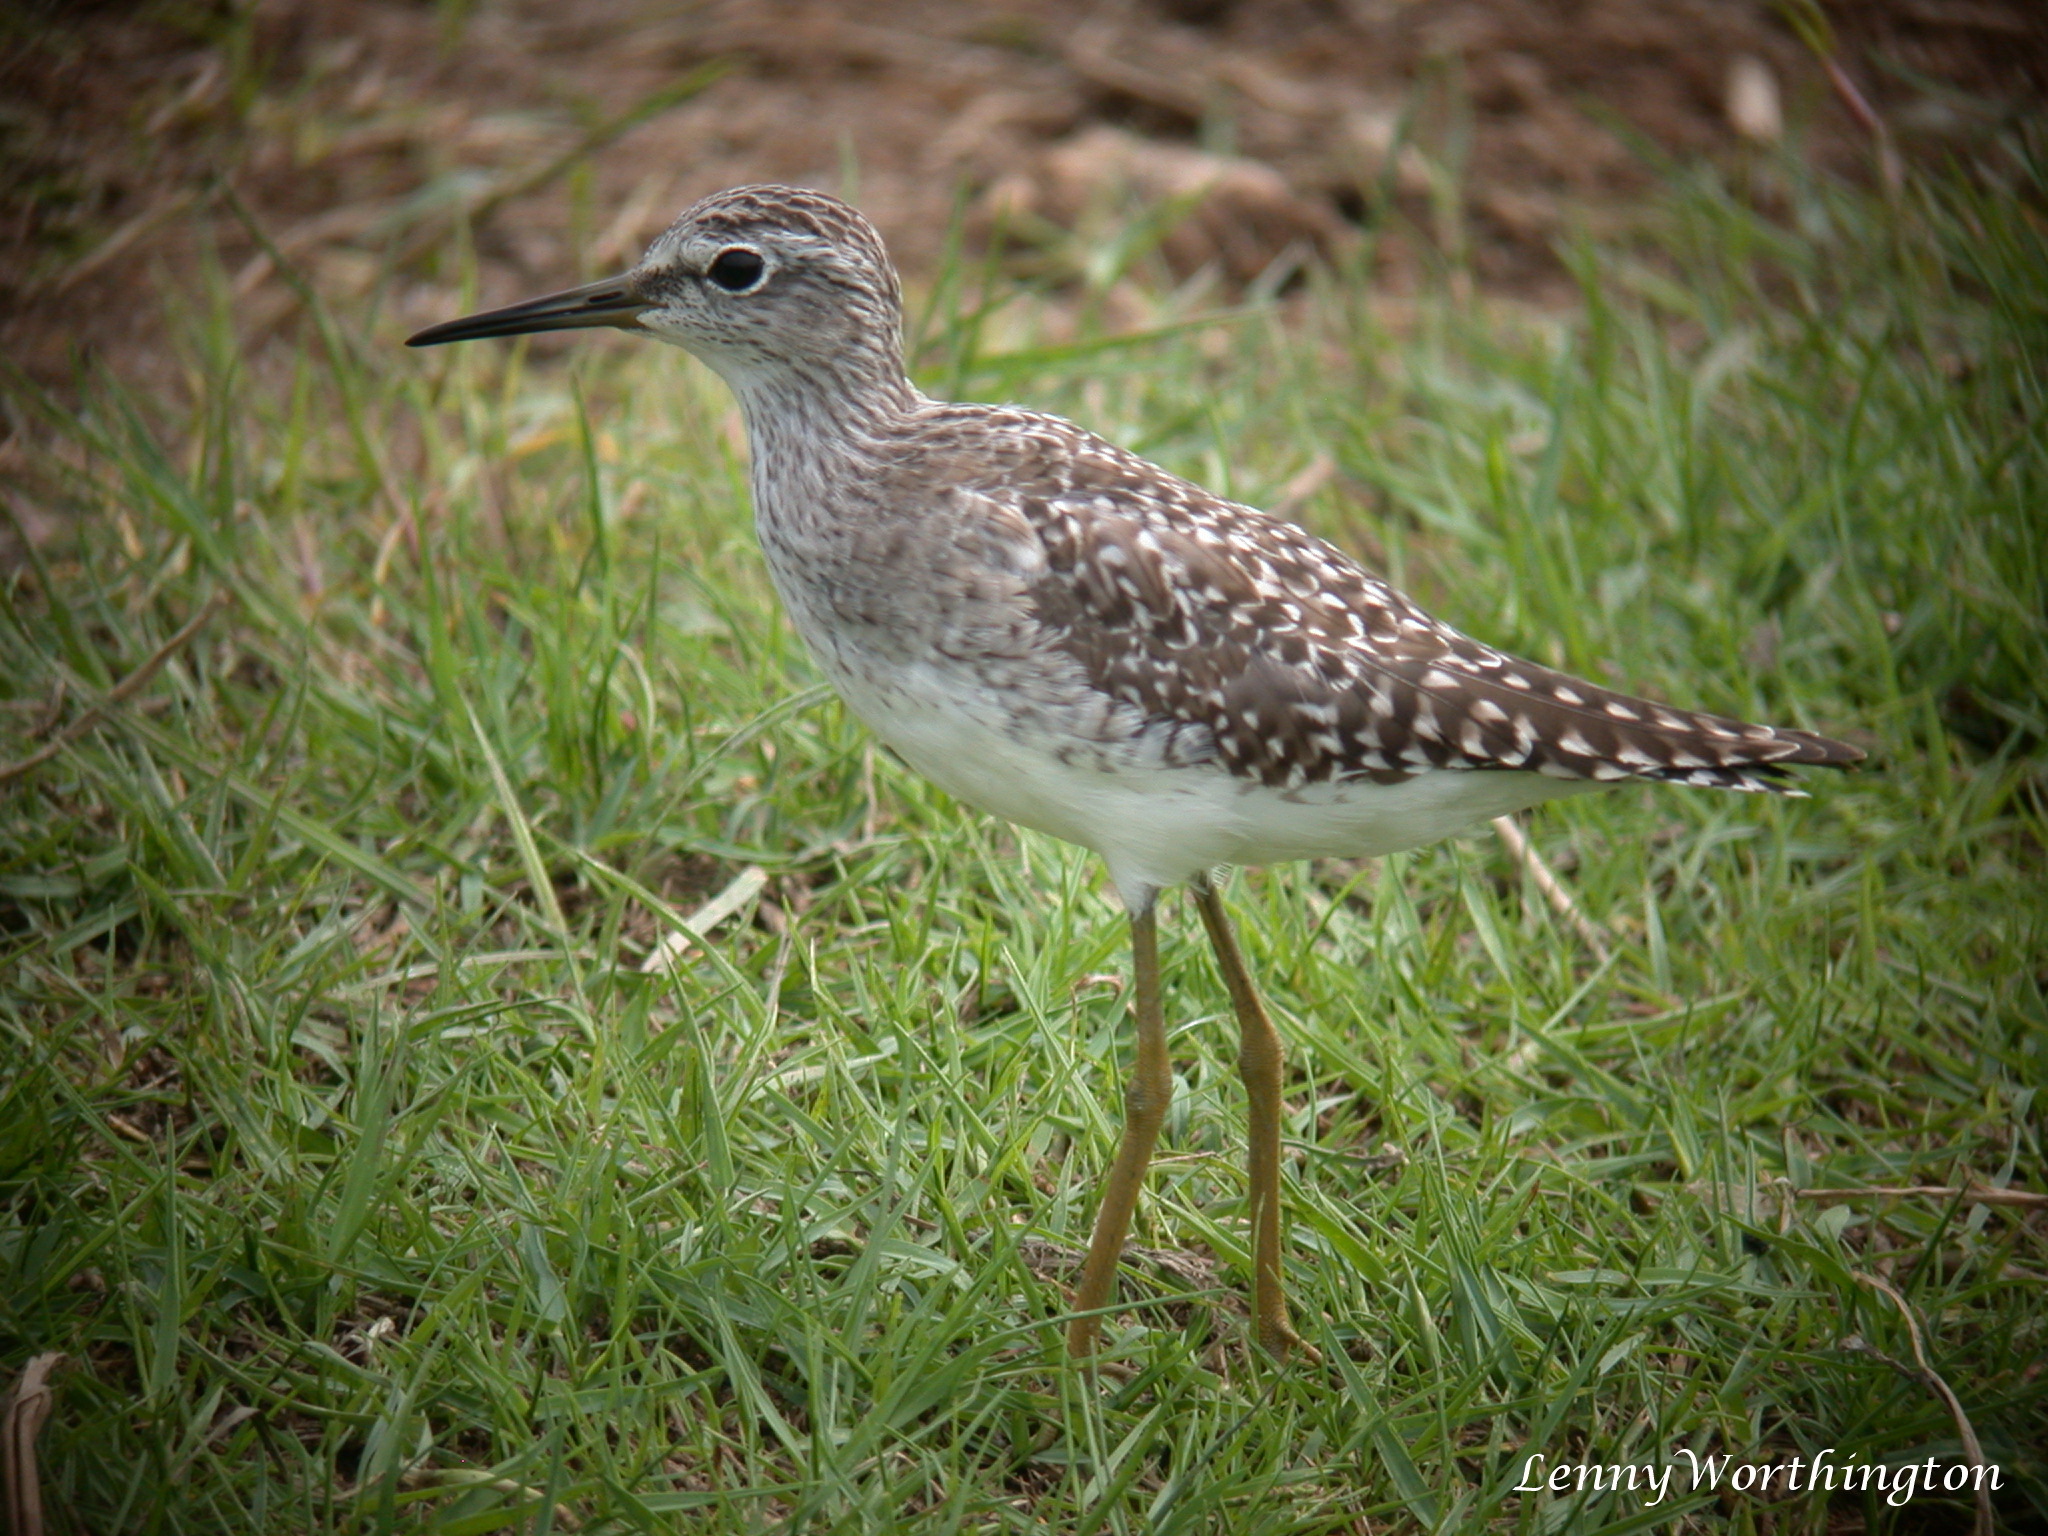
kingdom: Animalia
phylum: Chordata
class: Aves
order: Charadriiformes
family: Scolopacidae
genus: Tringa
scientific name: Tringa glareola
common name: Wood sandpiper
